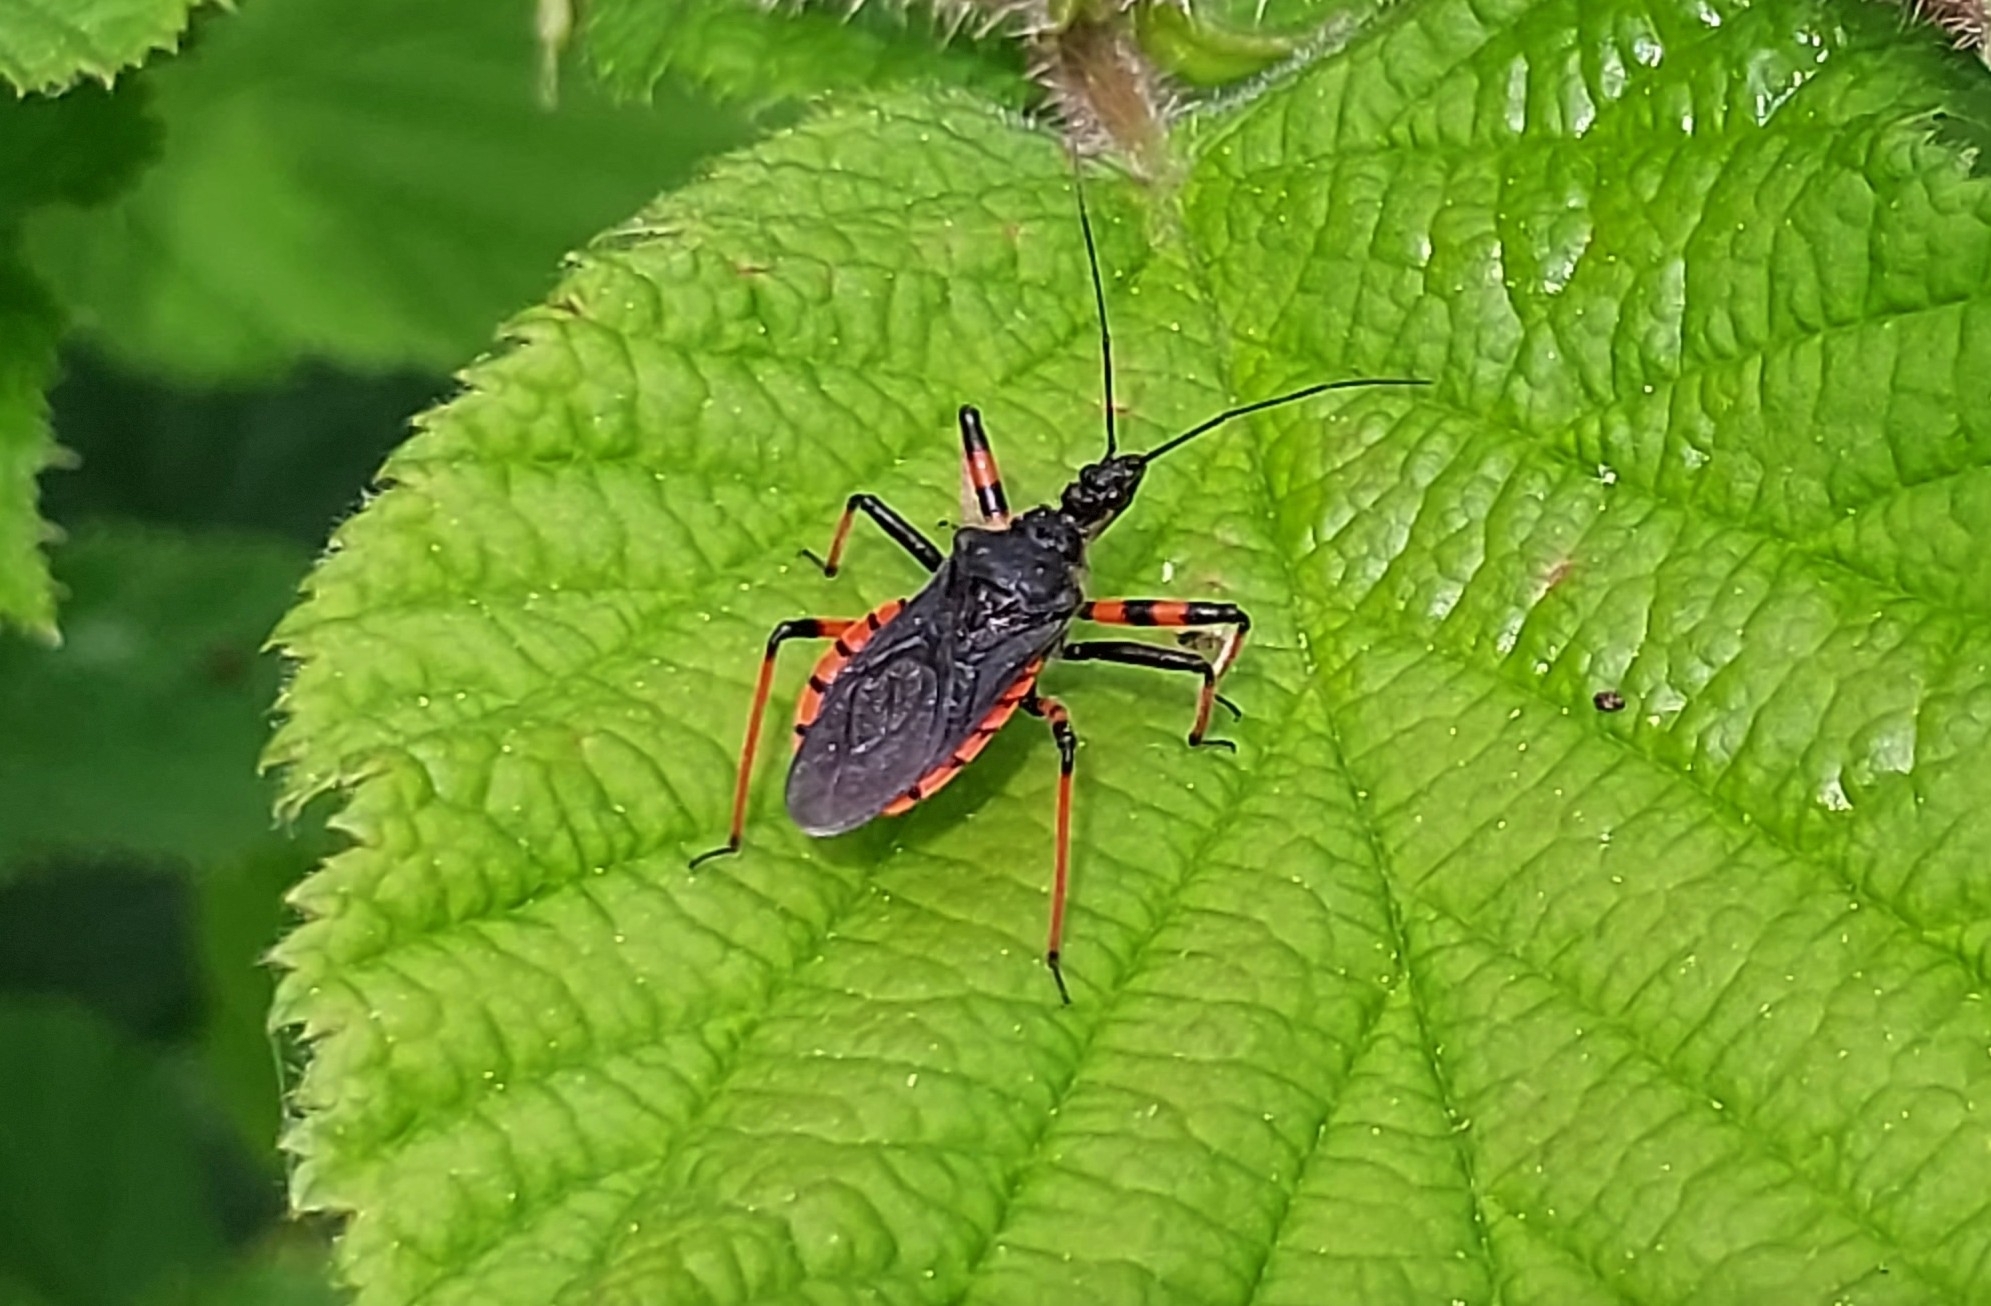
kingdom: Animalia
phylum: Arthropoda
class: Insecta
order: Hemiptera
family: Reduviidae
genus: Rhynocoris
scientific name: Rhynocoris annulatus
